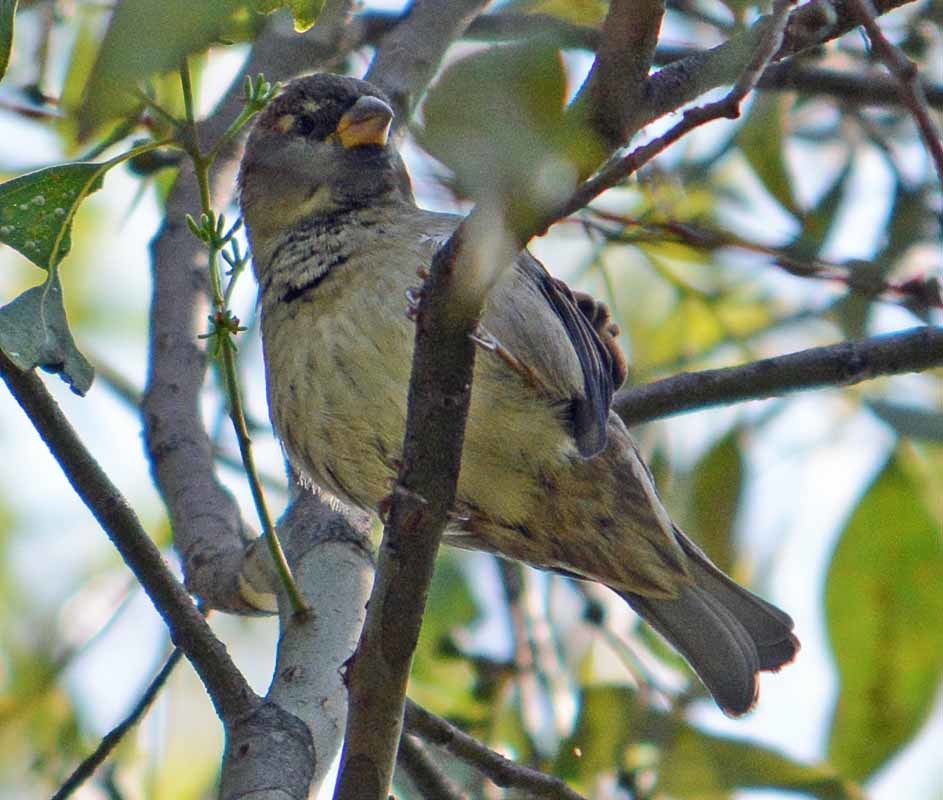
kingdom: Animalia
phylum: Chordata
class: Aves
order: Passeriformes
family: Passeridae
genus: Passer
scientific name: Passer domesticus
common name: House sparrow
